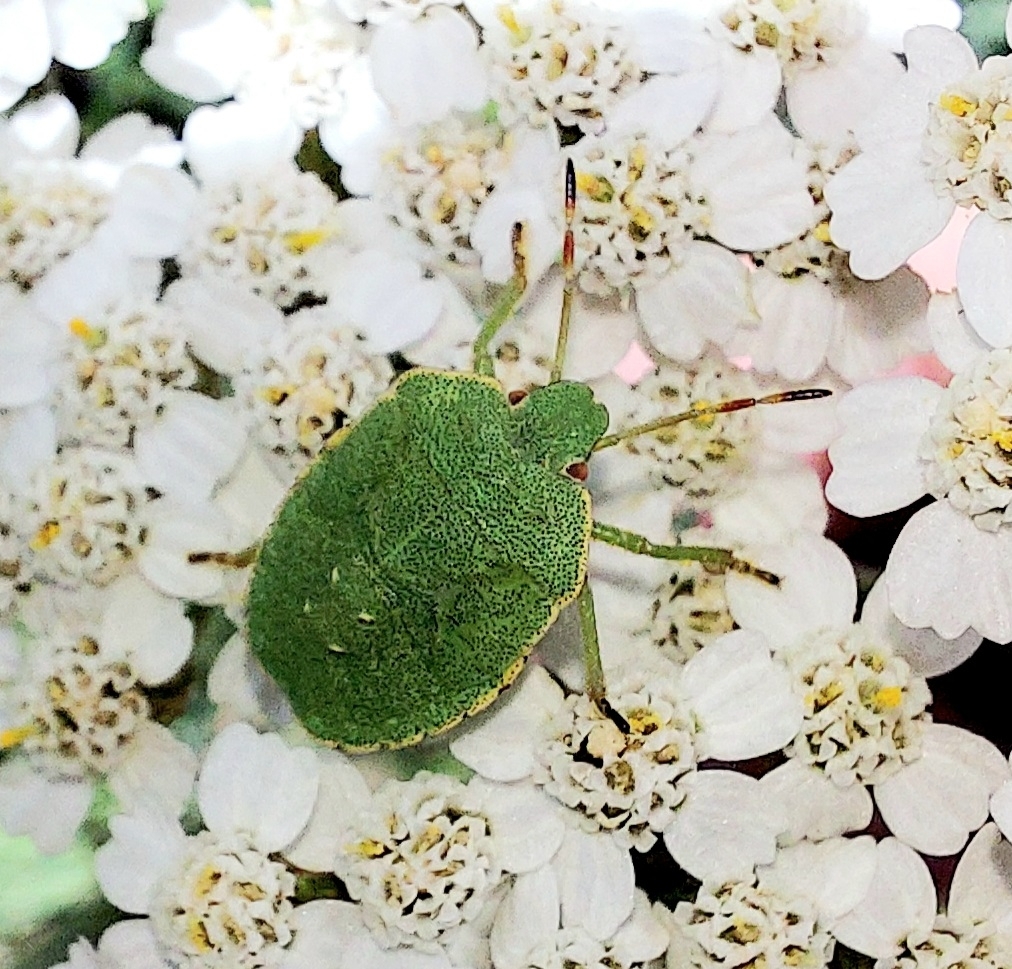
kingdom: Animalia
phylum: Arthropoda
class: Insecta
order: Hemiptera
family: Pentatomidae
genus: Palomena
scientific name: Palomena prasina
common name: Green shieldbug
